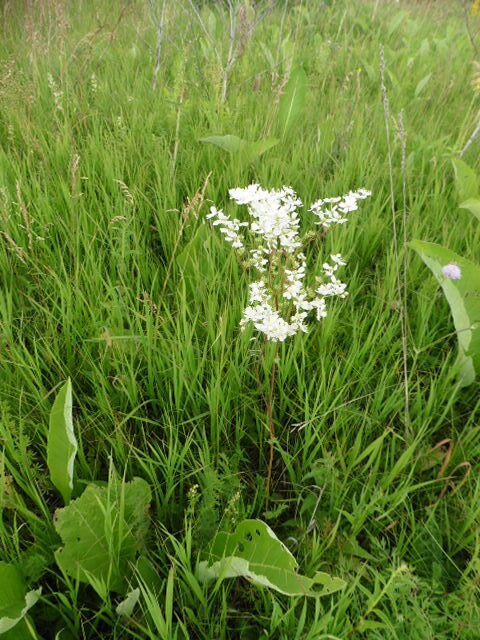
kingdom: Plantae
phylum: Tracheophyta
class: Magnoliopsida
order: Rosales
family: Rosaceae
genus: Filipendula
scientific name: Filipendula vulgaris
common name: Dropwort
